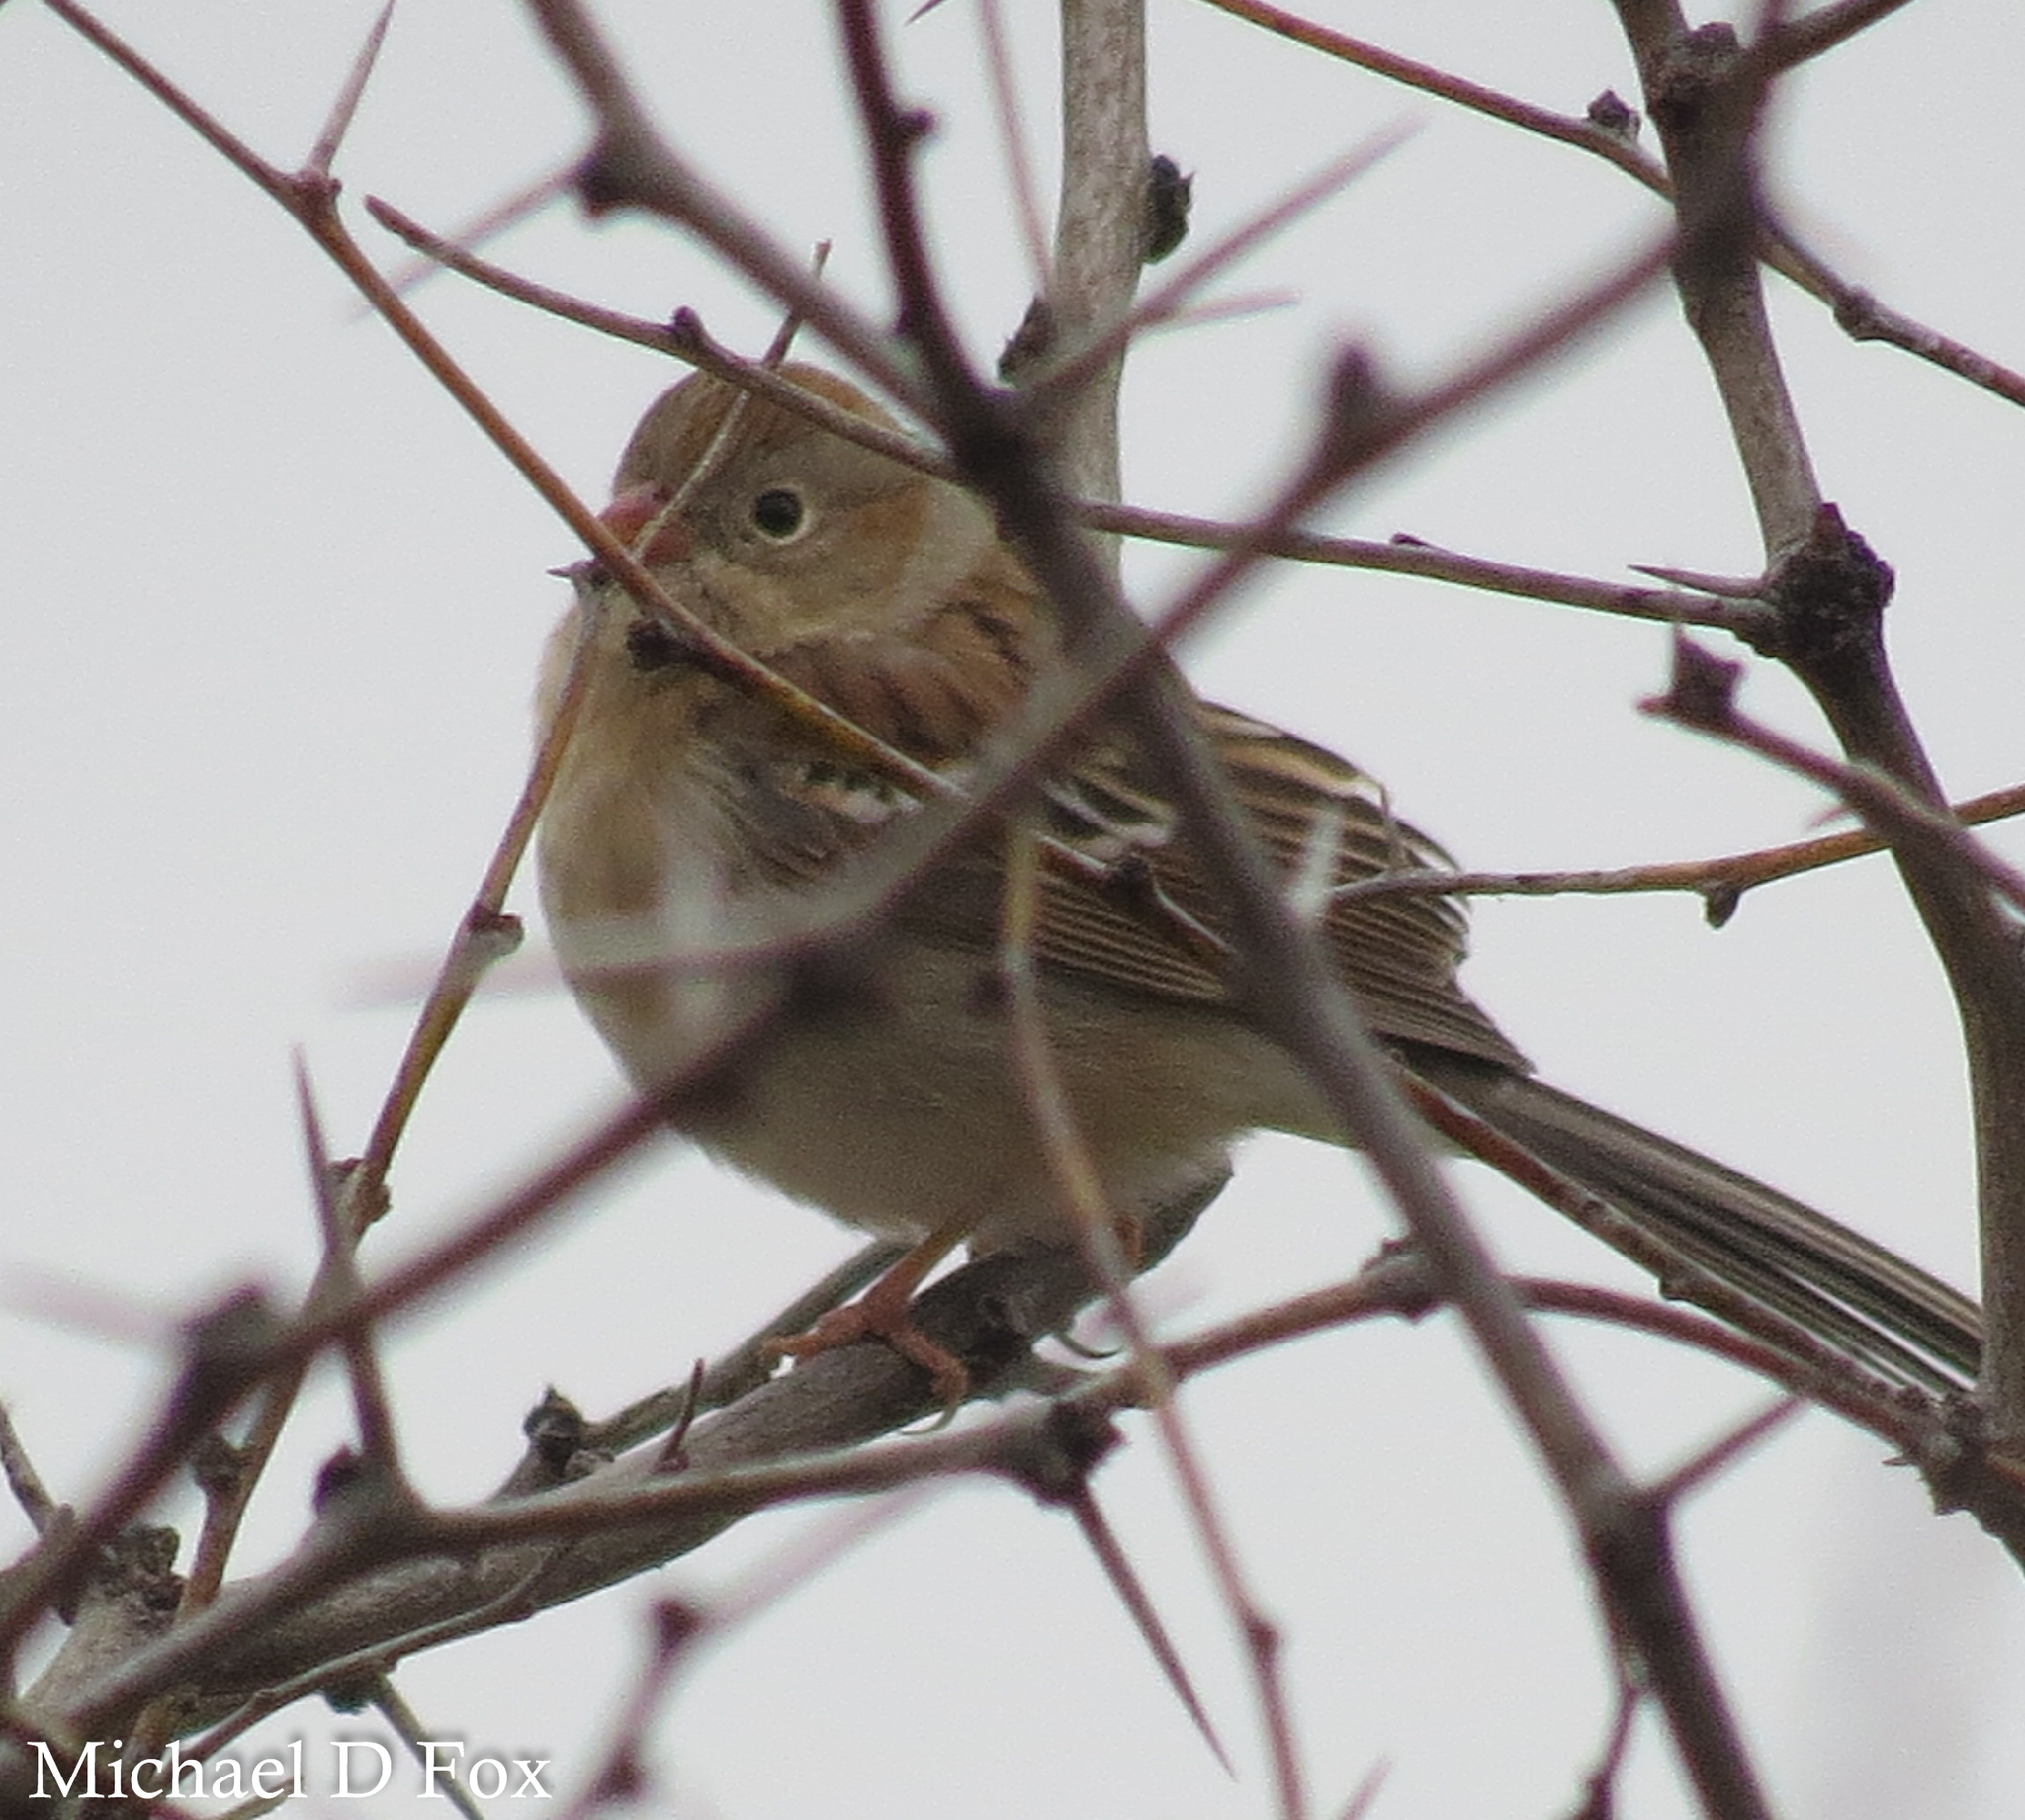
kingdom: Animalia
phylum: Chordata
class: Aves
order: Passeriformes
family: Passerellidae
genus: Spizella
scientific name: Spizella pusilla
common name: Field sparrow
